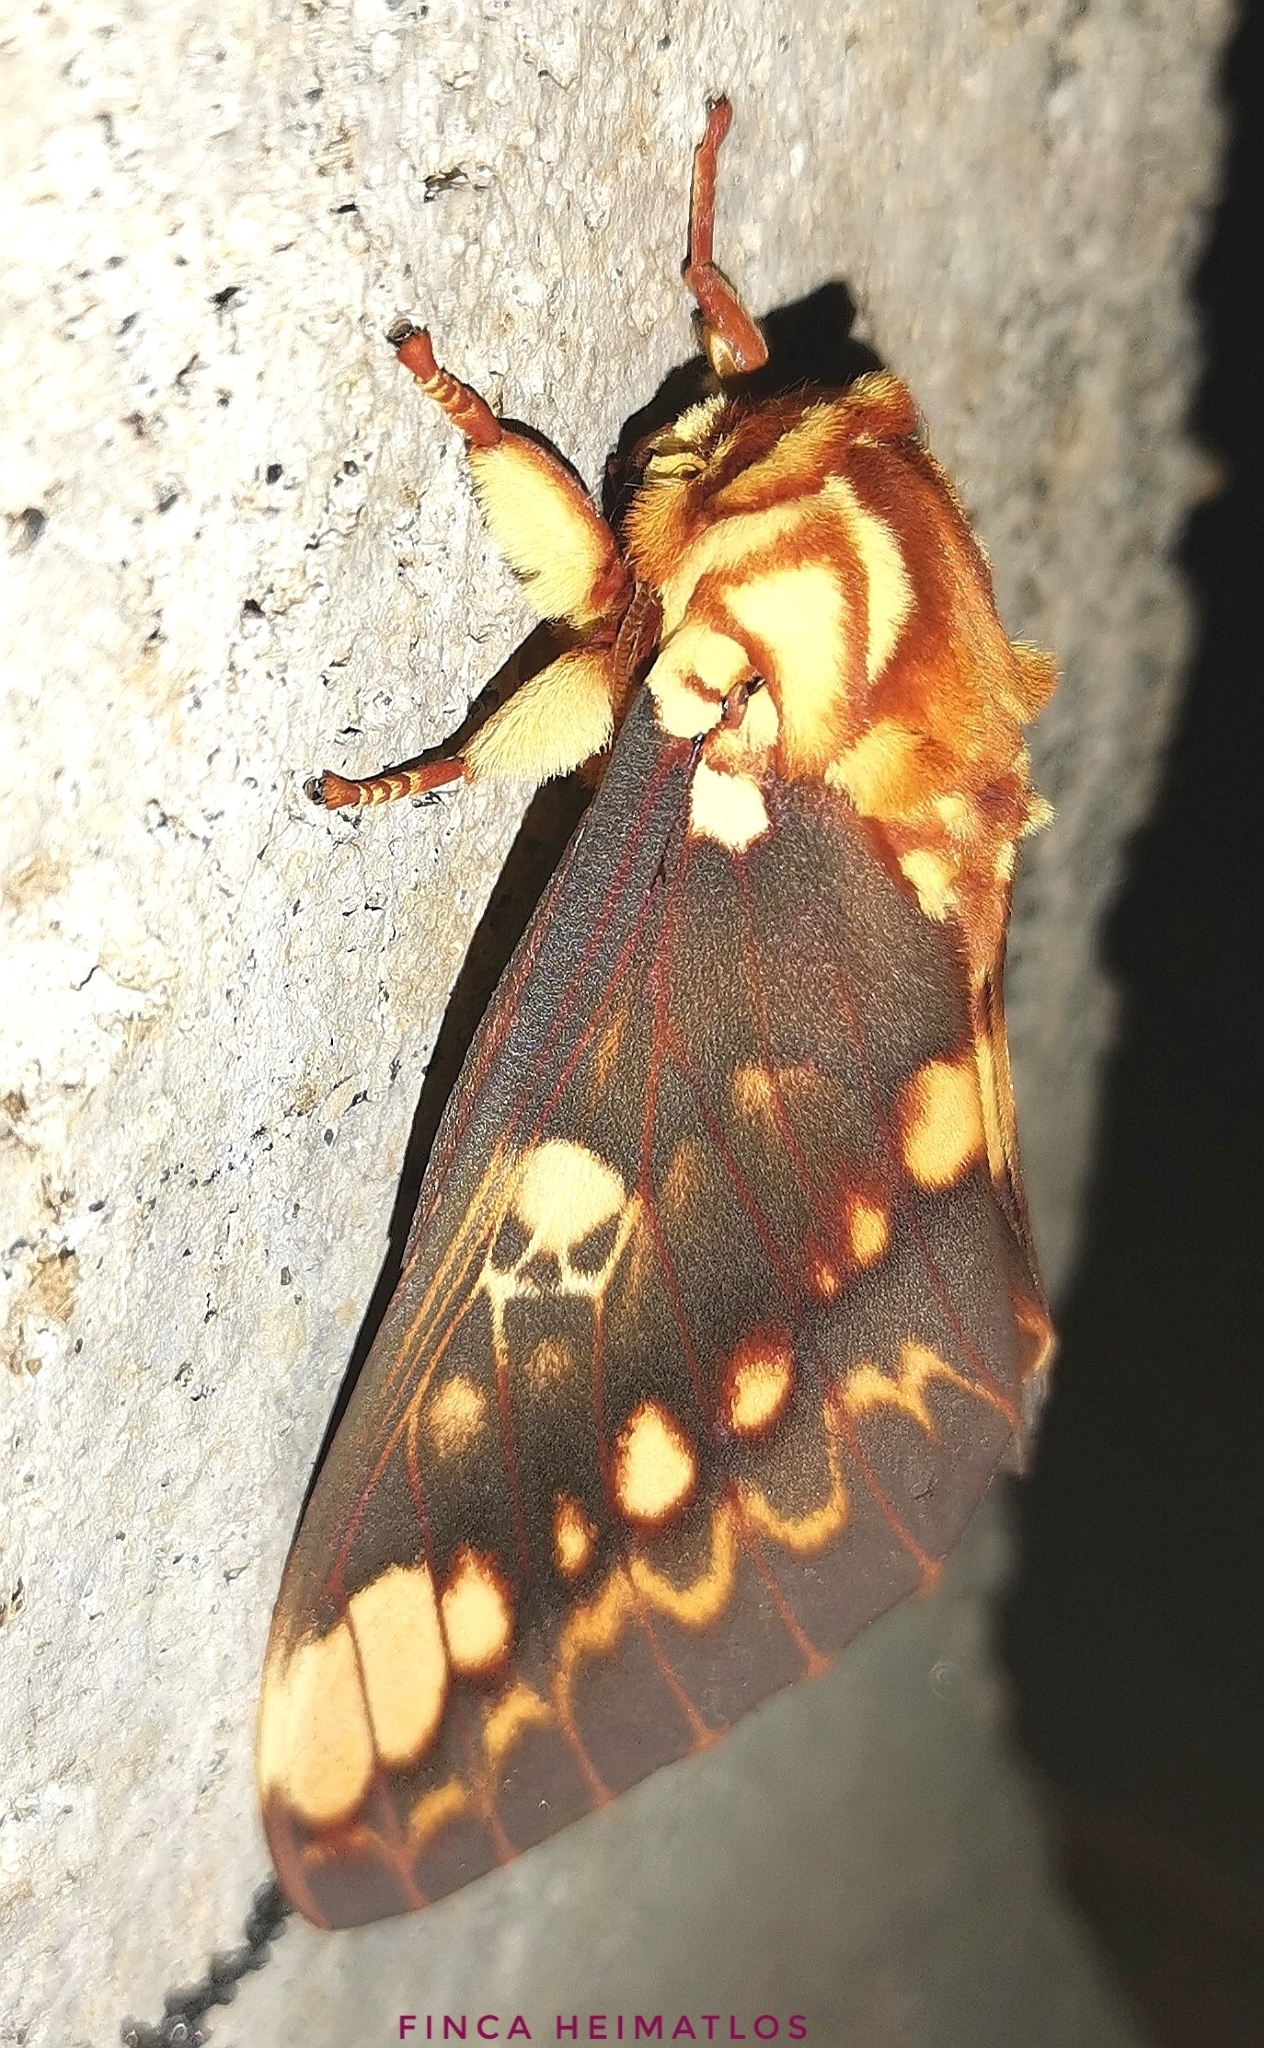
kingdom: Animalia
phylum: Arthropoda
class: Insecta
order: Lepidoptera
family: Saturniidae
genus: Citheronia
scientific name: Citheronia hamifera
